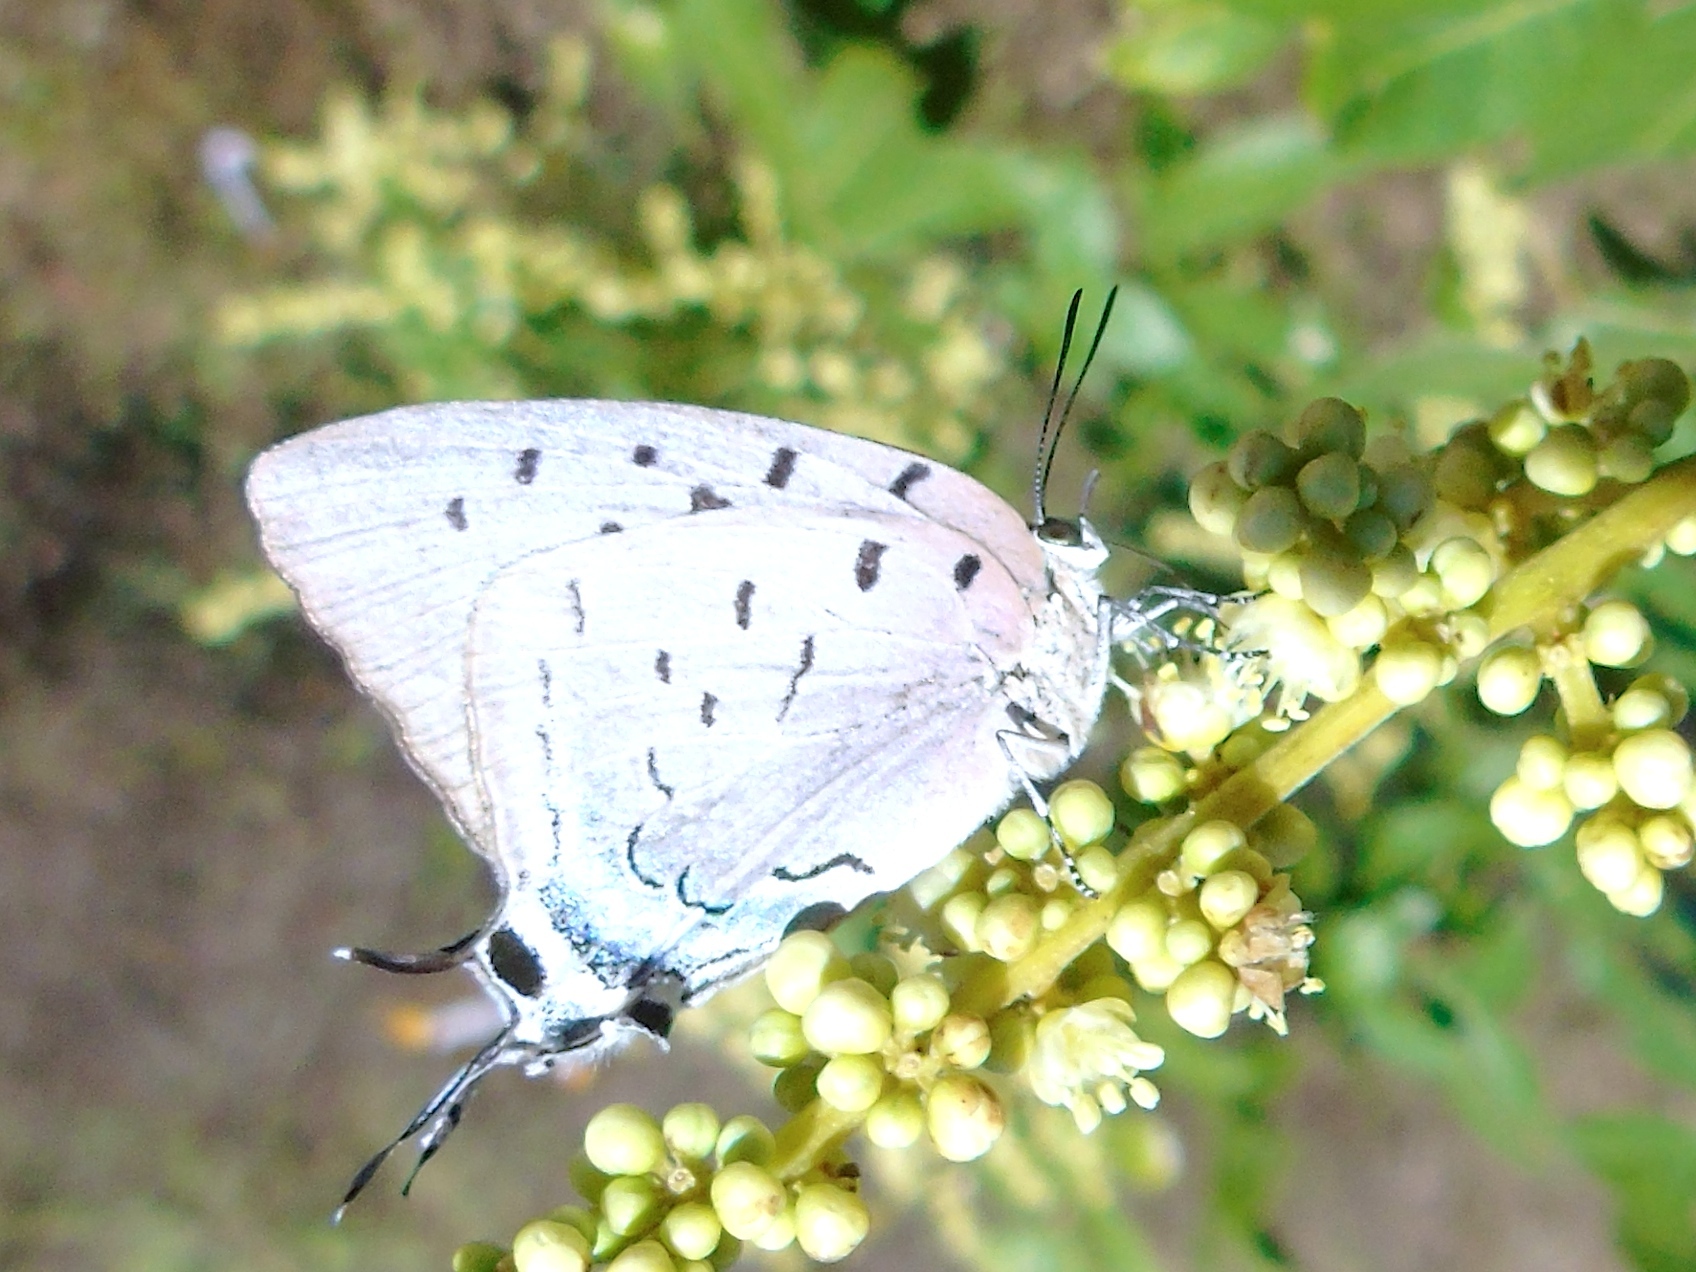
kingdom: Animalia
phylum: Arthropoda
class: Insecta
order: Lepidoptera
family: Lycaenidae
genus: Pseudolycaena
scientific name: Pseudolycaena damo
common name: Sky-blue hairstreak
